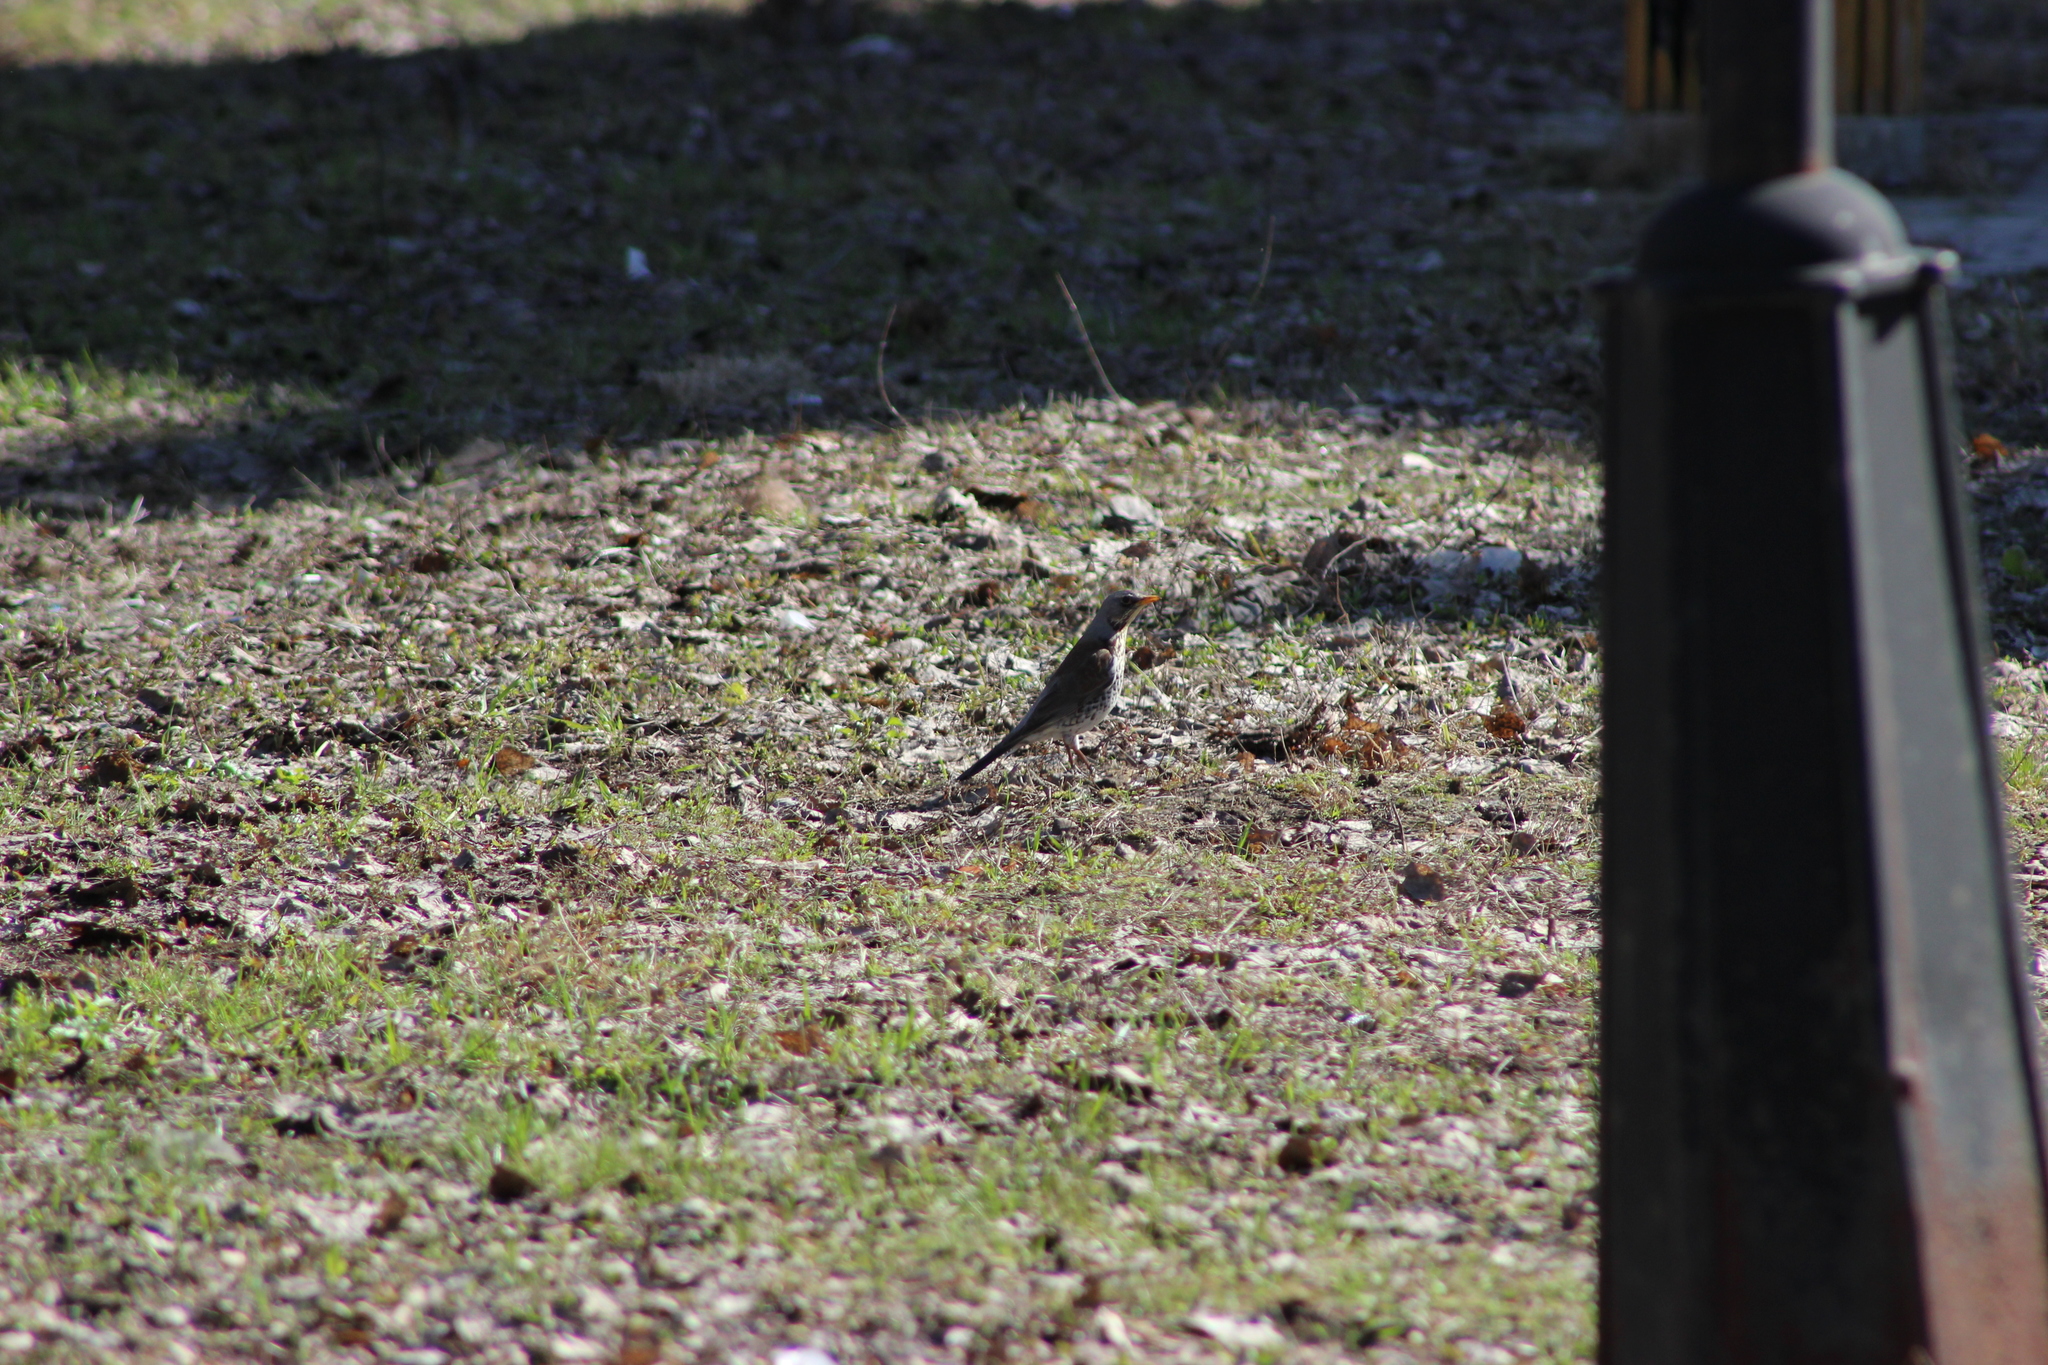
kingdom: Animalia
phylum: Chordata
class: Aves
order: Passeriformes
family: Turdidae
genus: Turdus
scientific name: Turdus pilaris
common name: Fieldfare
